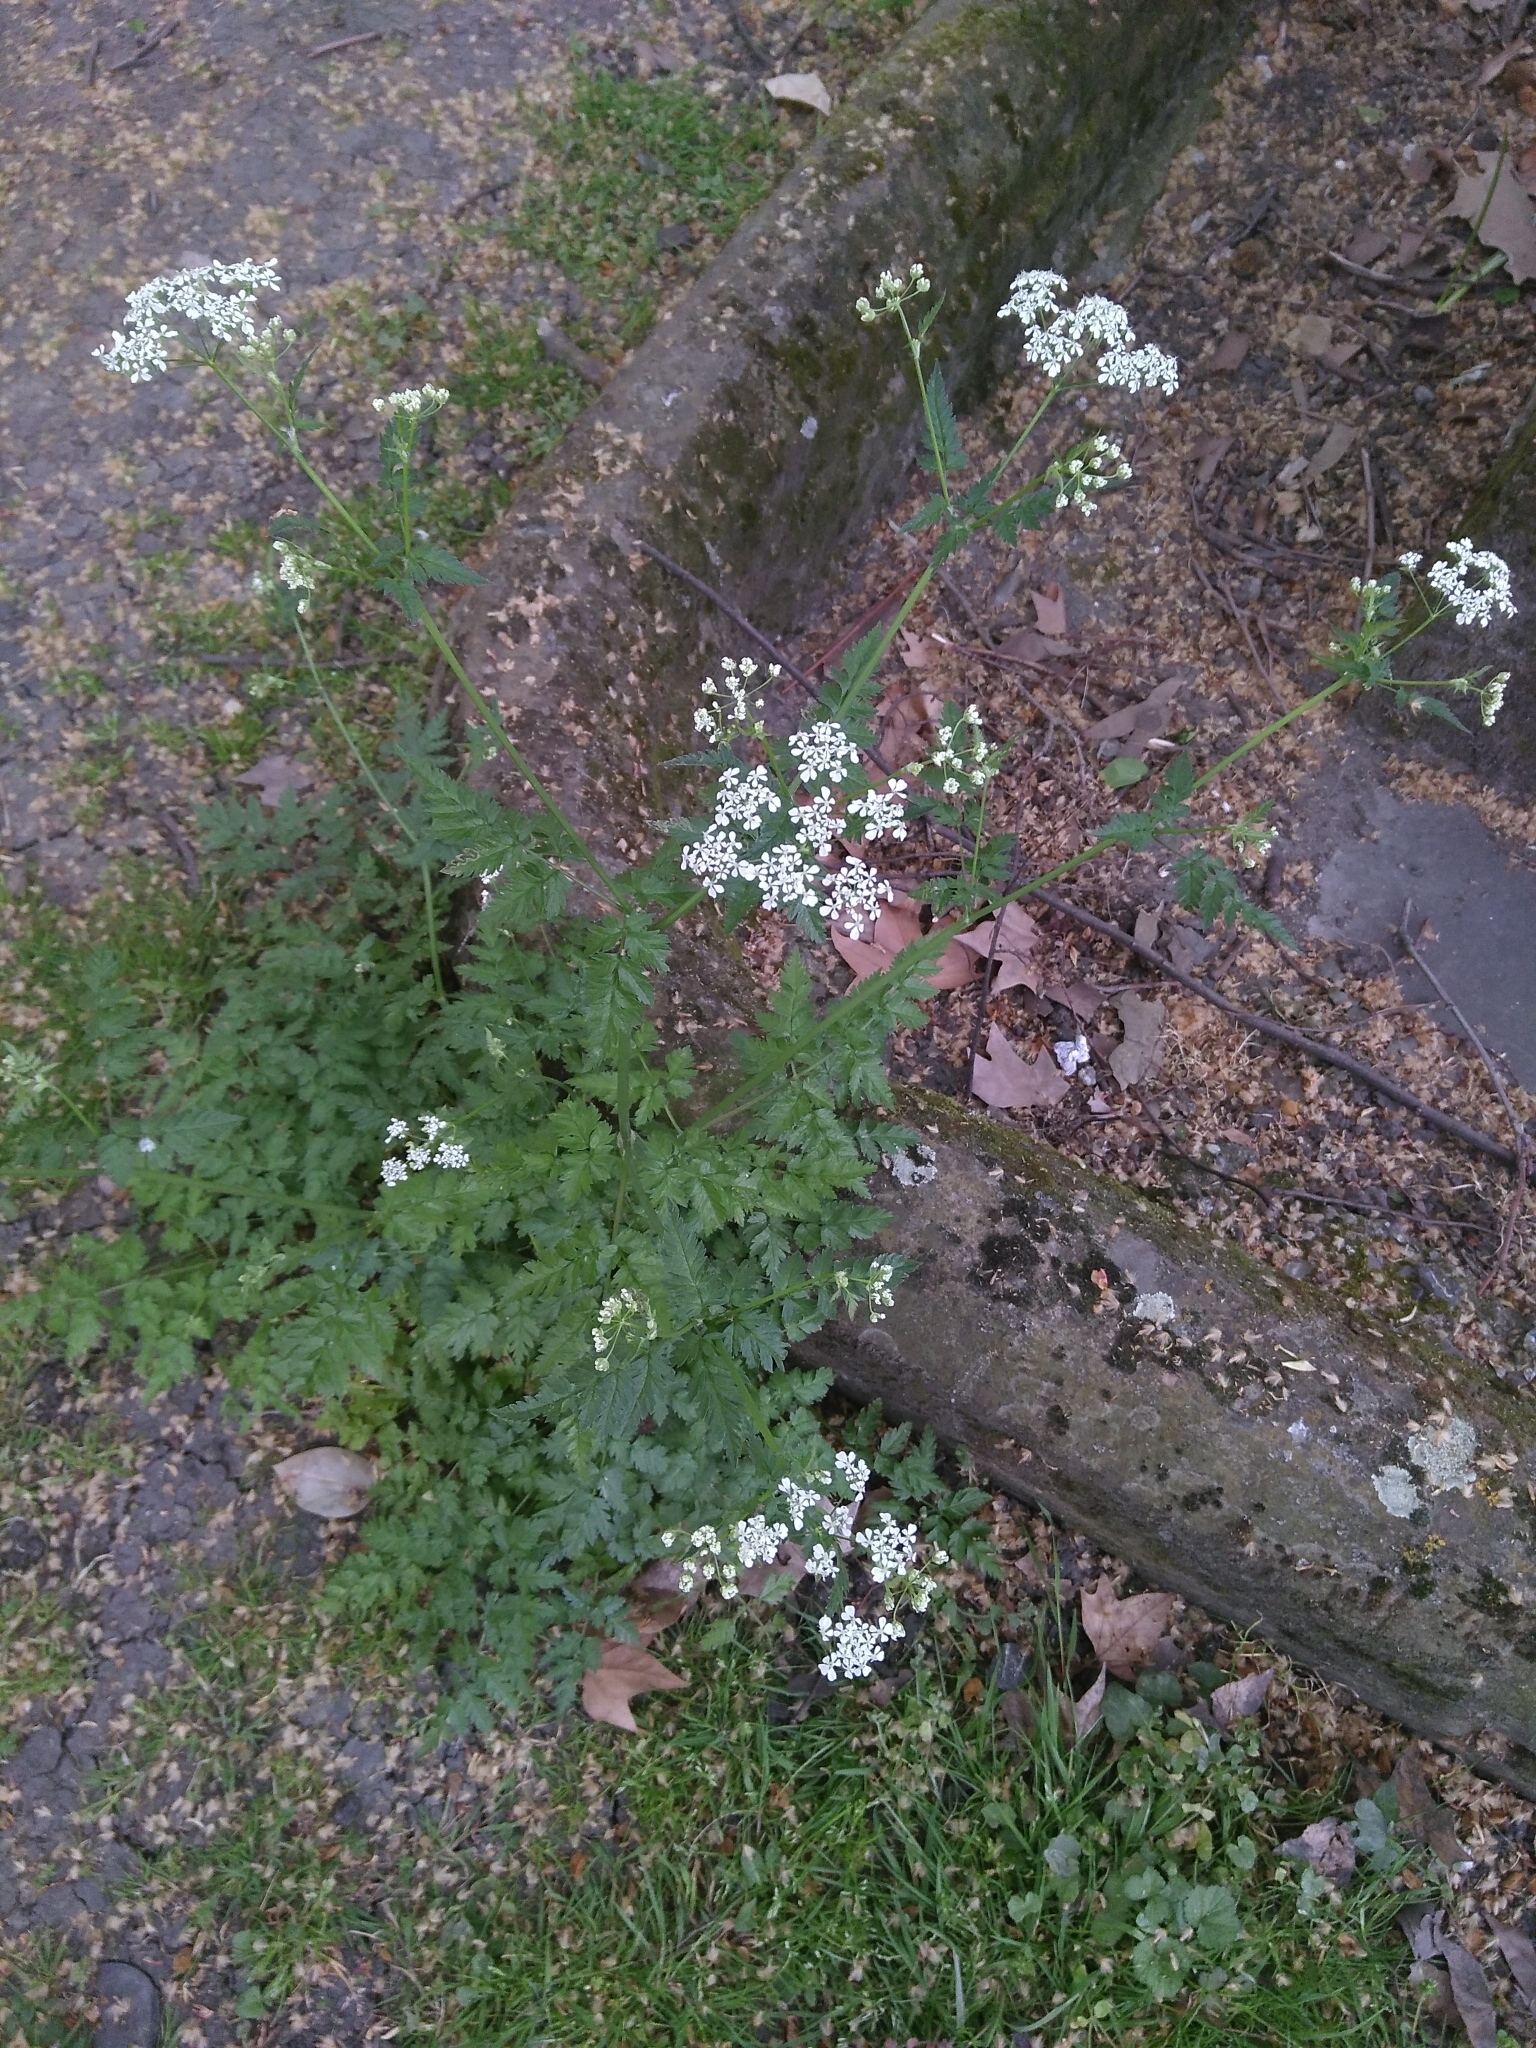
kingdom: Plantae
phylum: Tracheophyta
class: Magnoliopsida
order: Apiales
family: Apiaceae
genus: Anthriscus
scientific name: Anthriscus sylvestris
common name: Cow parsley
